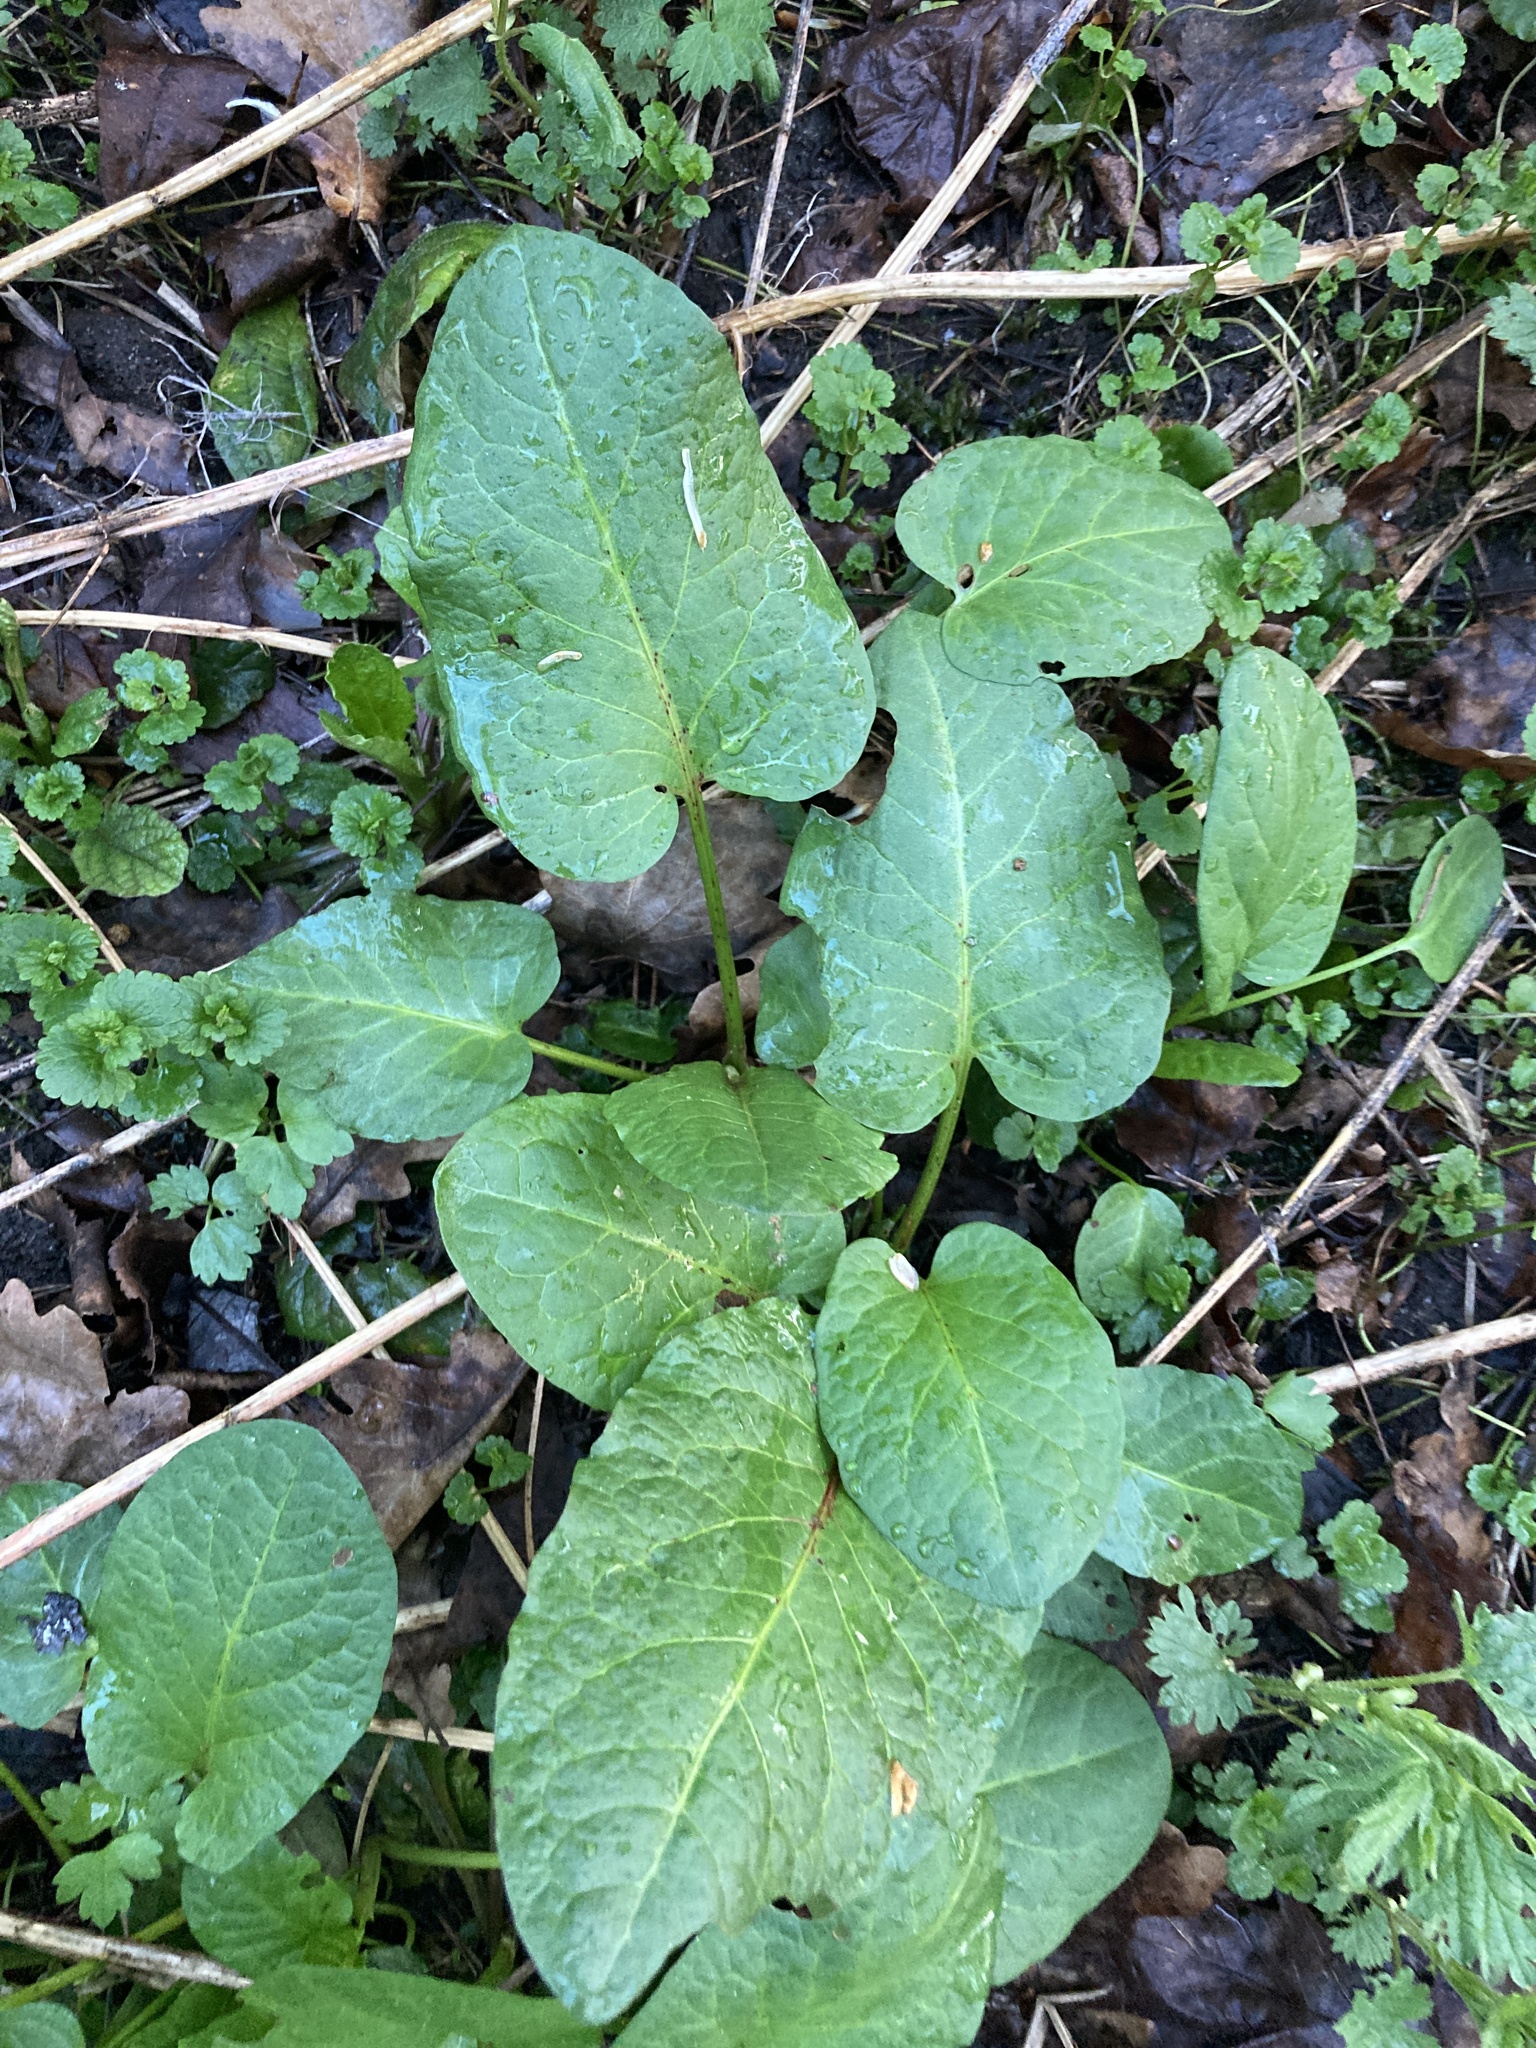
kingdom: Plantae
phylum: Tracheophyta
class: Magnoliopsida
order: Caryophyllales
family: Polygonaceae
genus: Rumex
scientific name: Rumex obtusifolius
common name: Bitter dock
